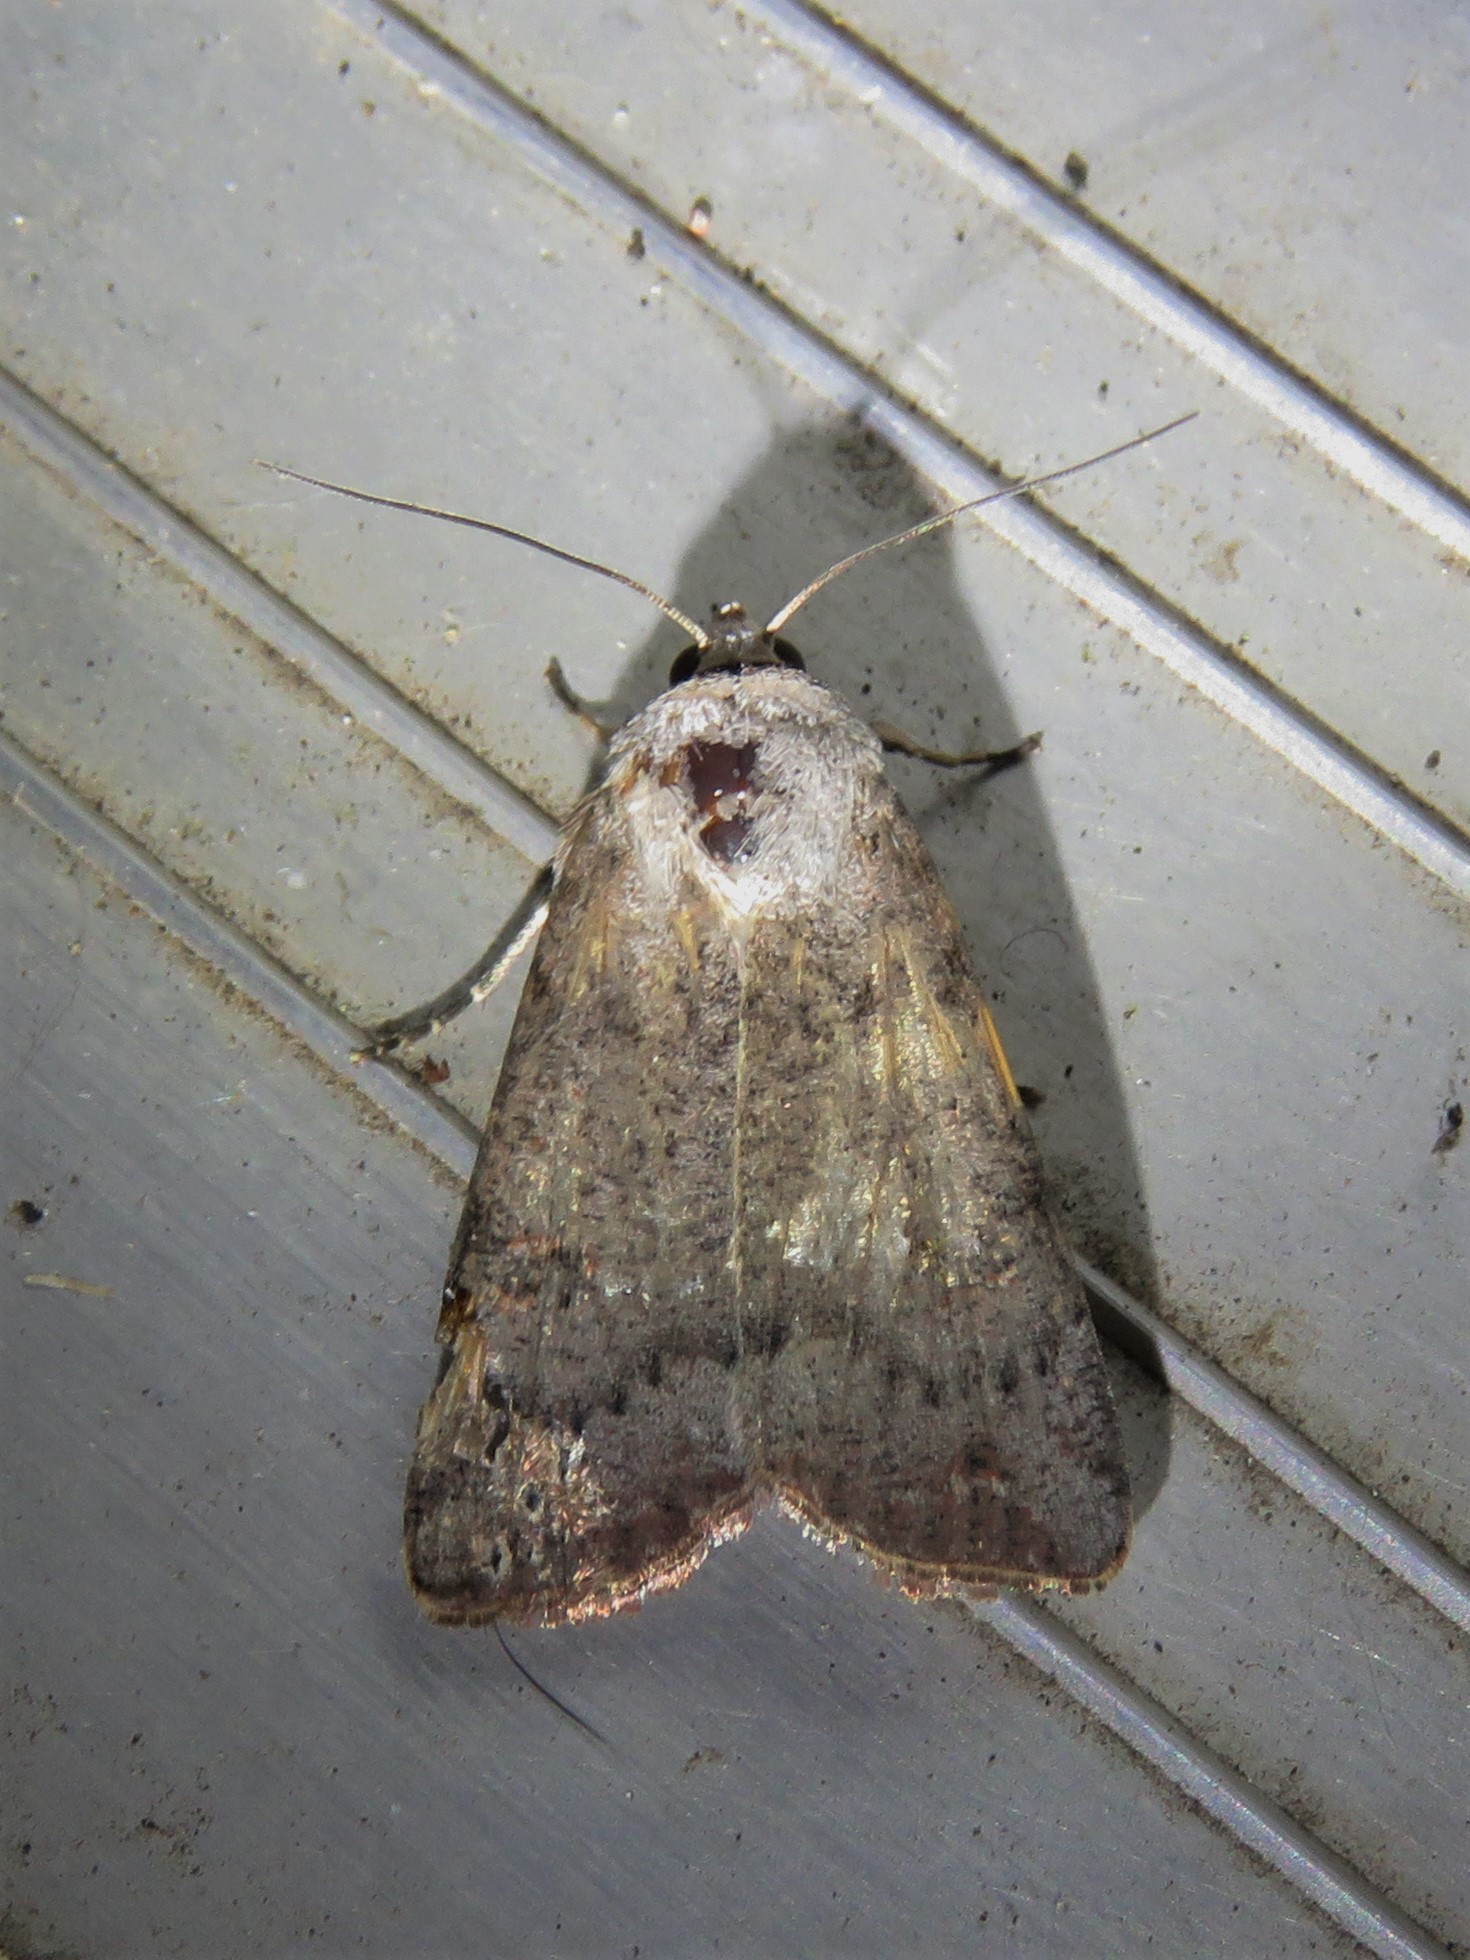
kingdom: Animalia
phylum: Arthropoda
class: Insecta
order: Lepidoptera
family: Noctuidae
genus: Anicla
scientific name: Anicla infecta
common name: Green cutworm
